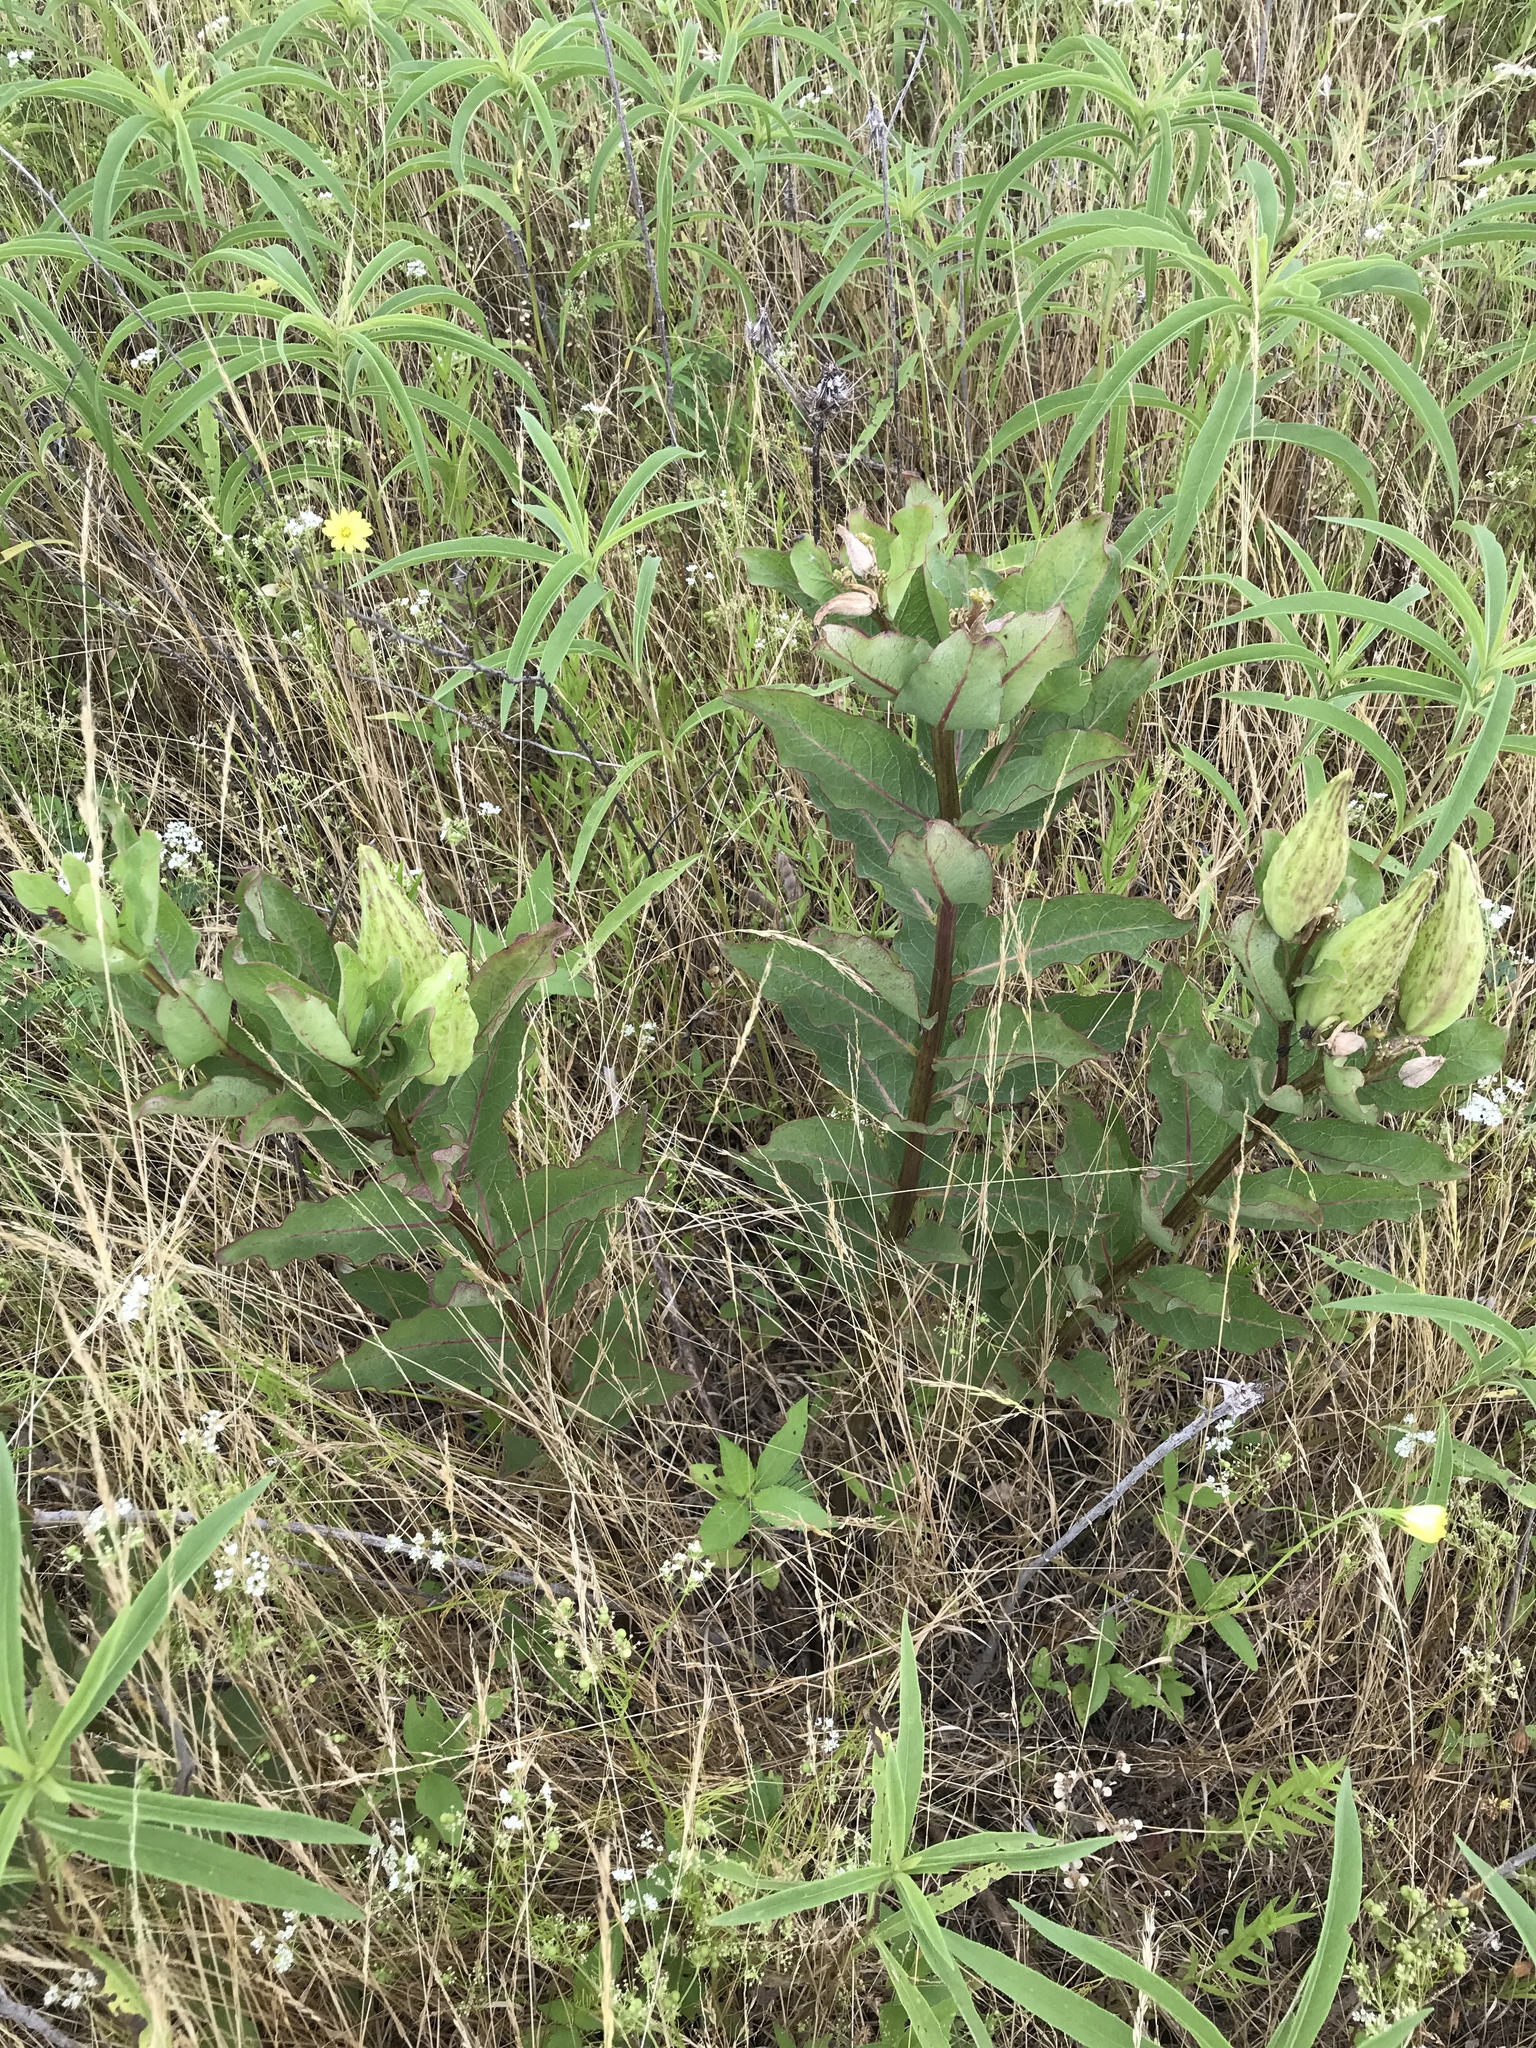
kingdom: Plantae
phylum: Tracheophyta
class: Magnoliopsida
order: Gentianales
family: Apocynaceae
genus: Asclepias
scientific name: Asclepias viridis
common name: Antelope-horns
